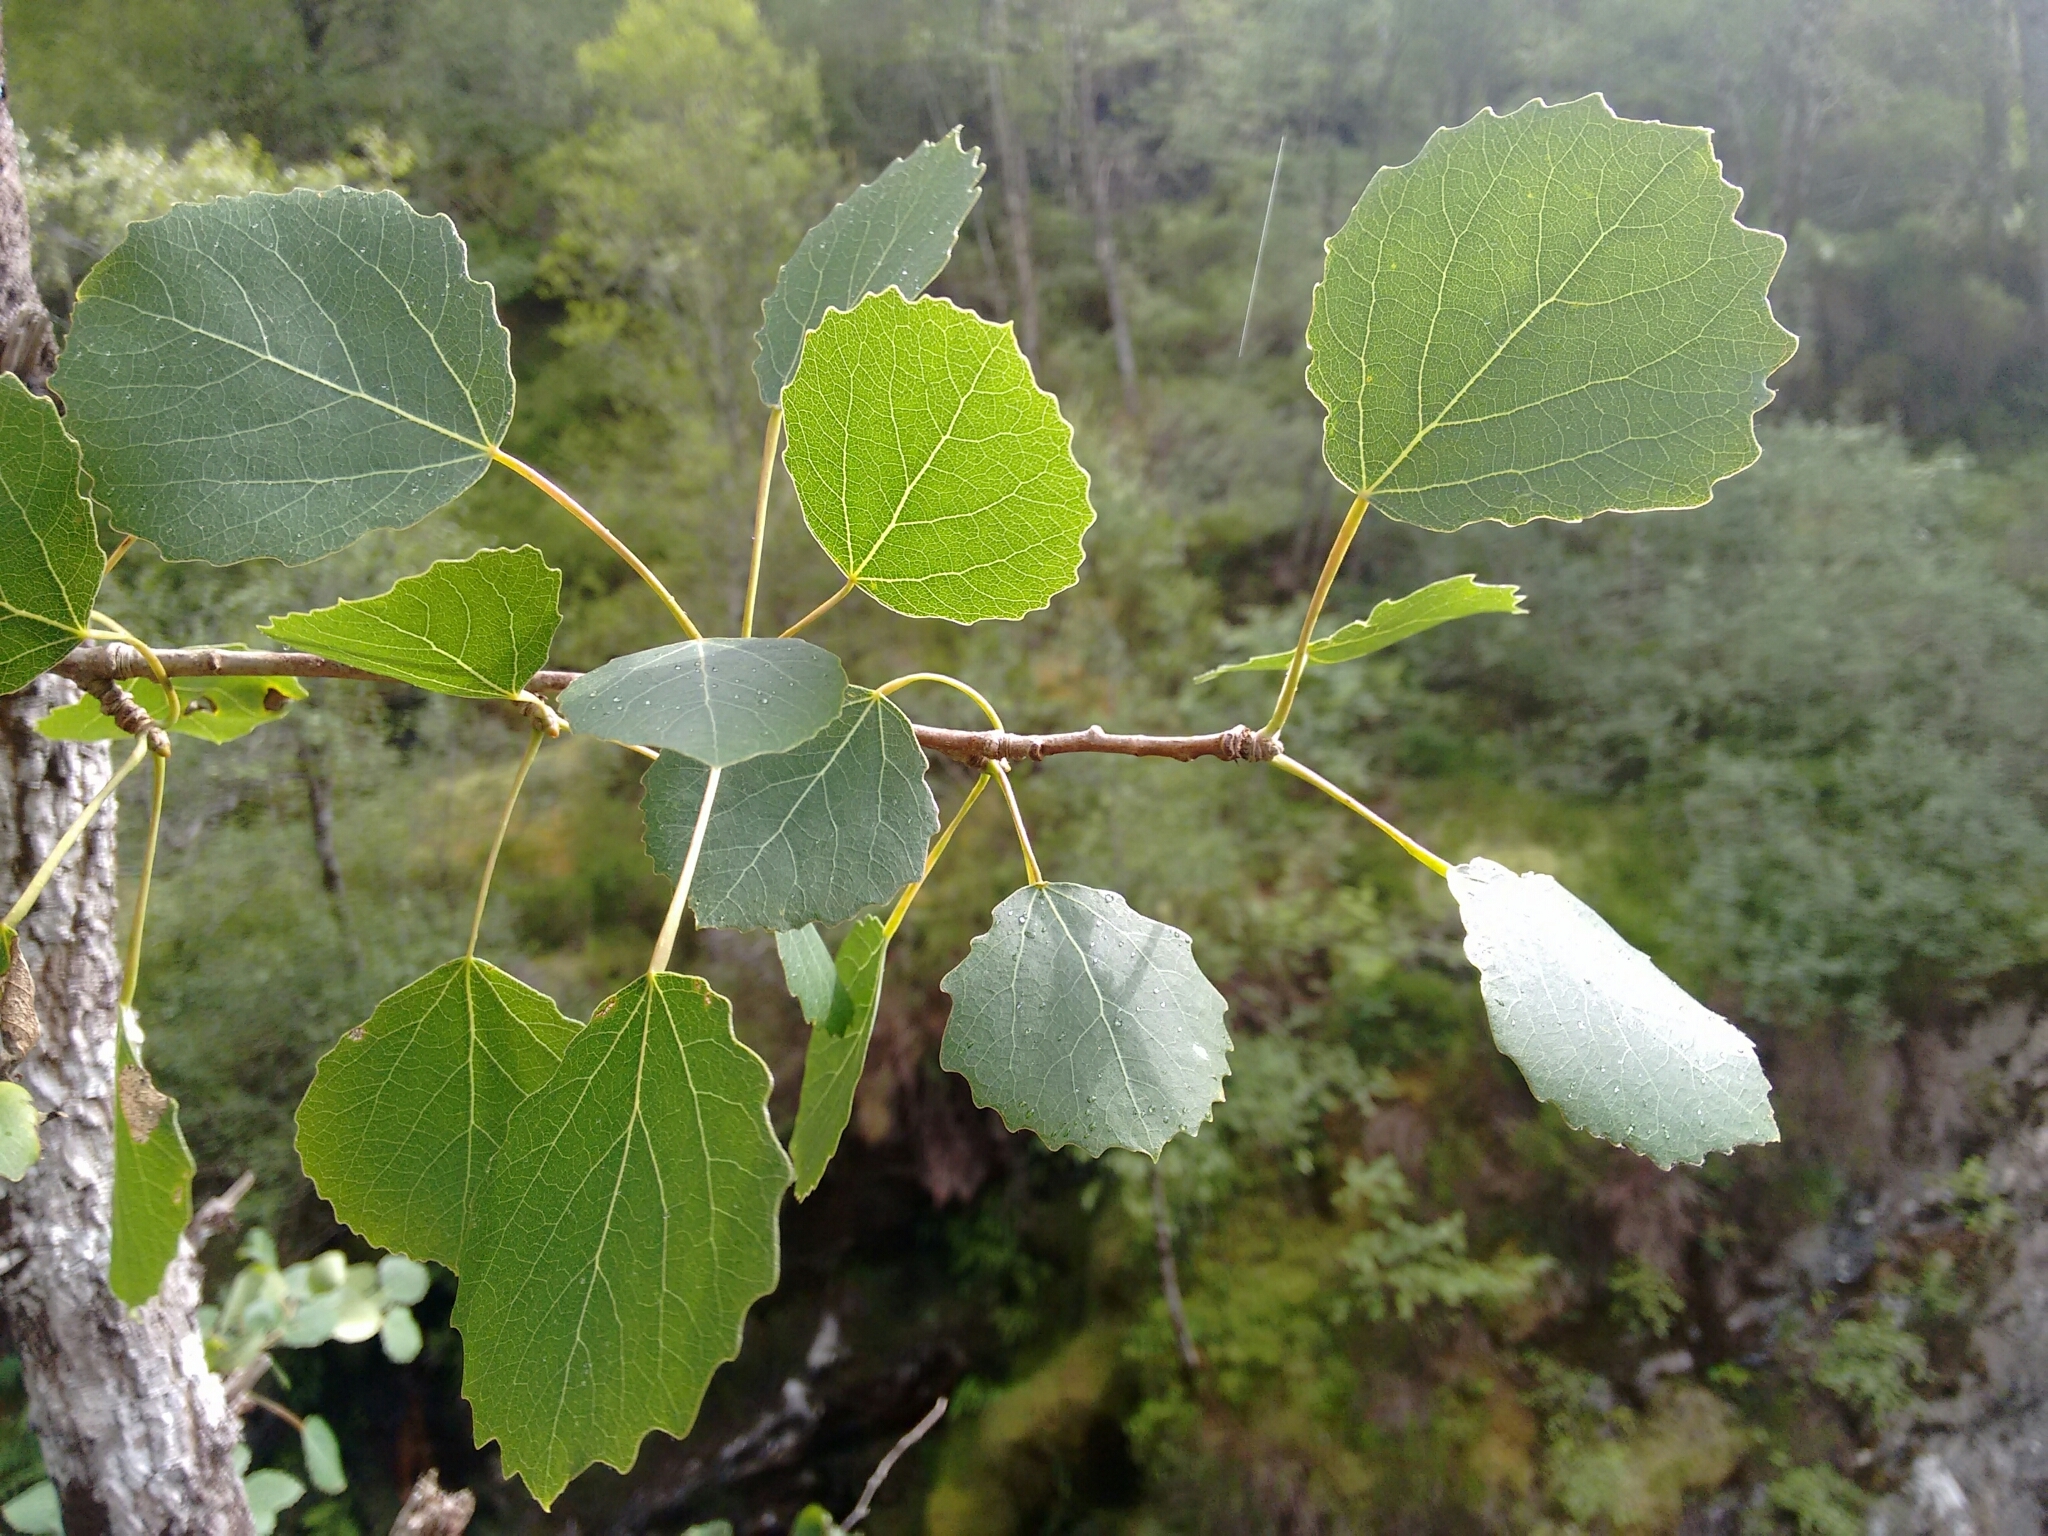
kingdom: Plantae
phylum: Tracheophyta
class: Magnoliopsida
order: Malpighiales
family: Salicaceae
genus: Populus
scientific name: Populus tremula
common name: European aspen
